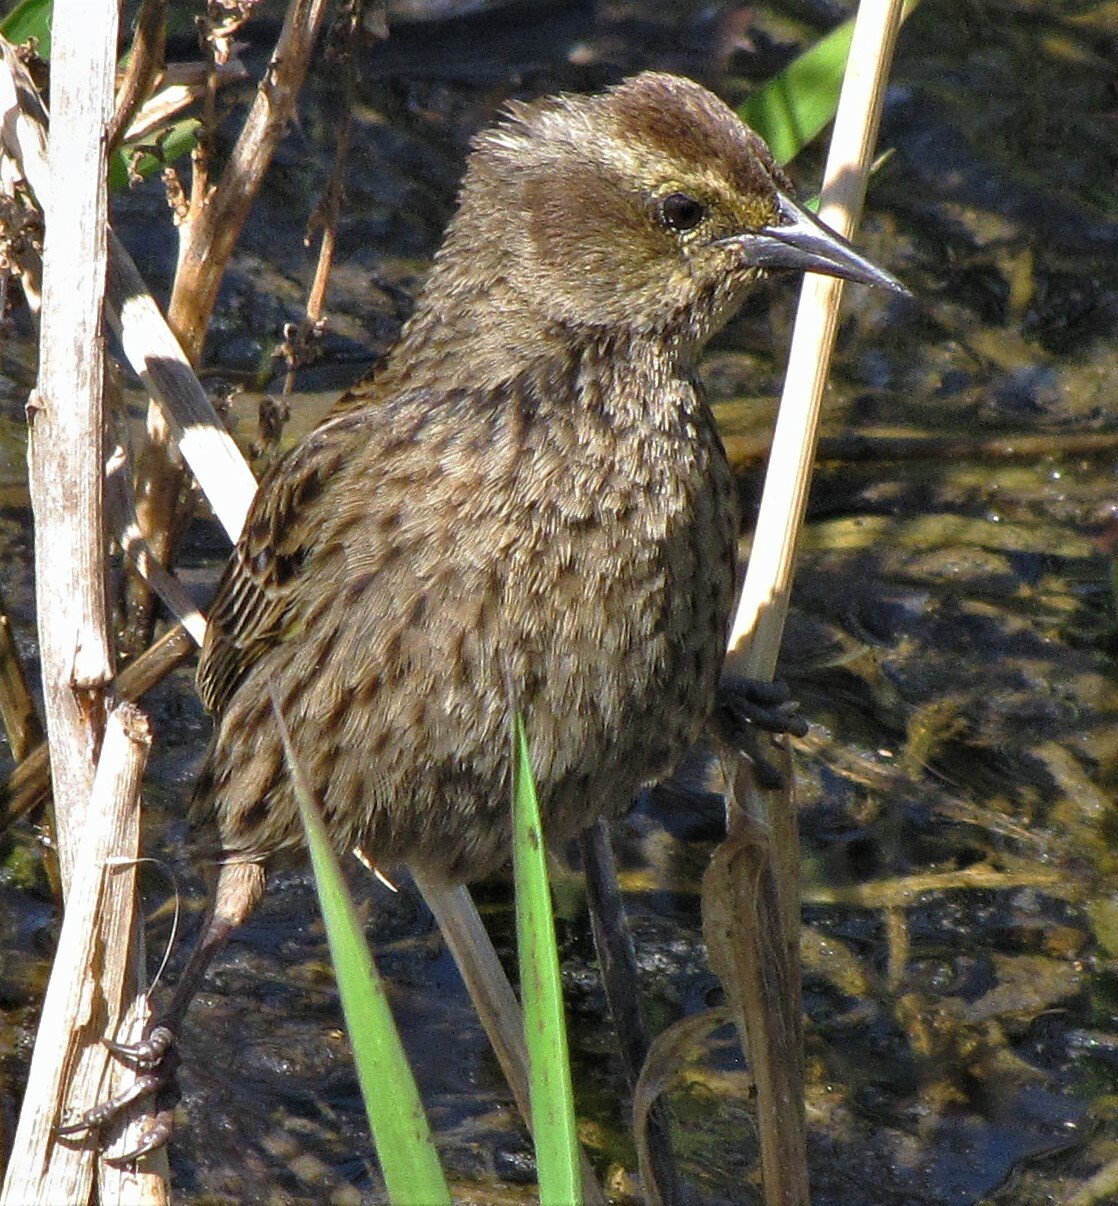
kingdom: Animalia
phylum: Chordata
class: Aves
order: Passeriformes
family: Icteridae
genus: Agelasticus
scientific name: Agelasticus thilius
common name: Yellow-winged blackbird
